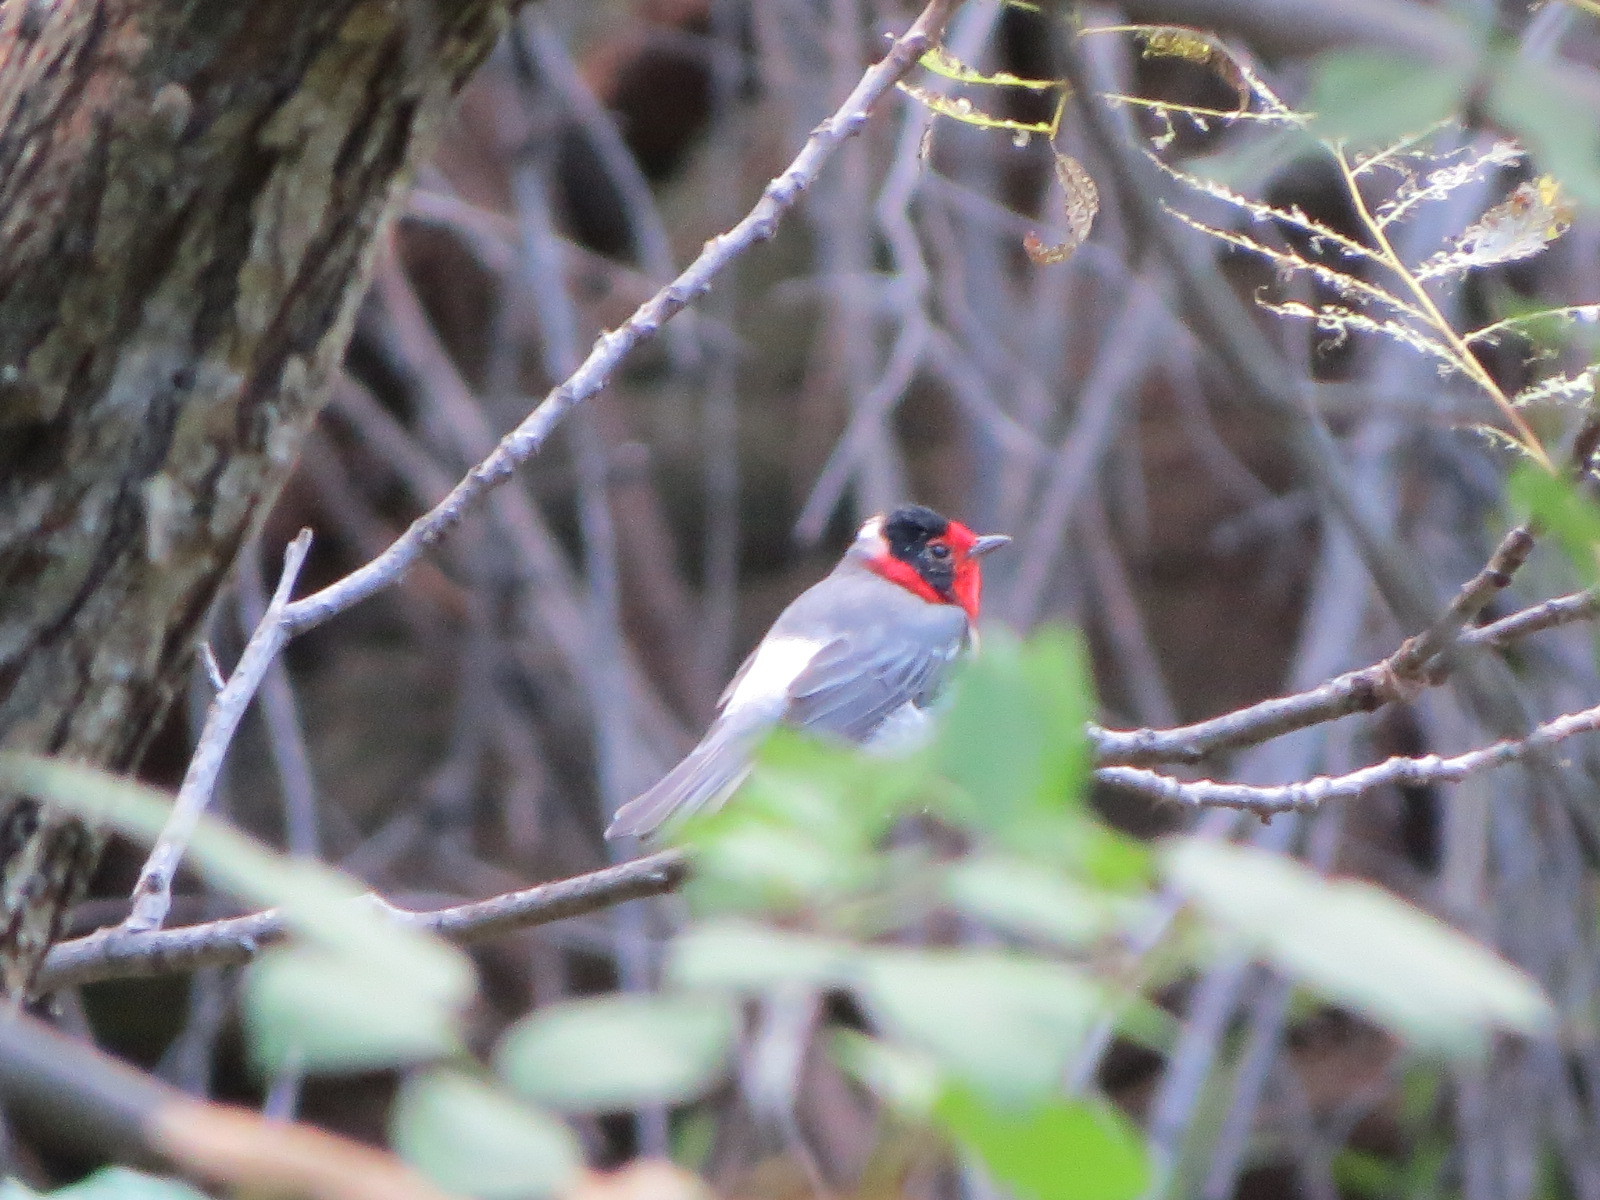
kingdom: Animalia
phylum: Chordata
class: Aves
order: Passeriformes
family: Parulidae
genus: Cardellina
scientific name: Cardellina rubrifrons
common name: Red-faced warbler
